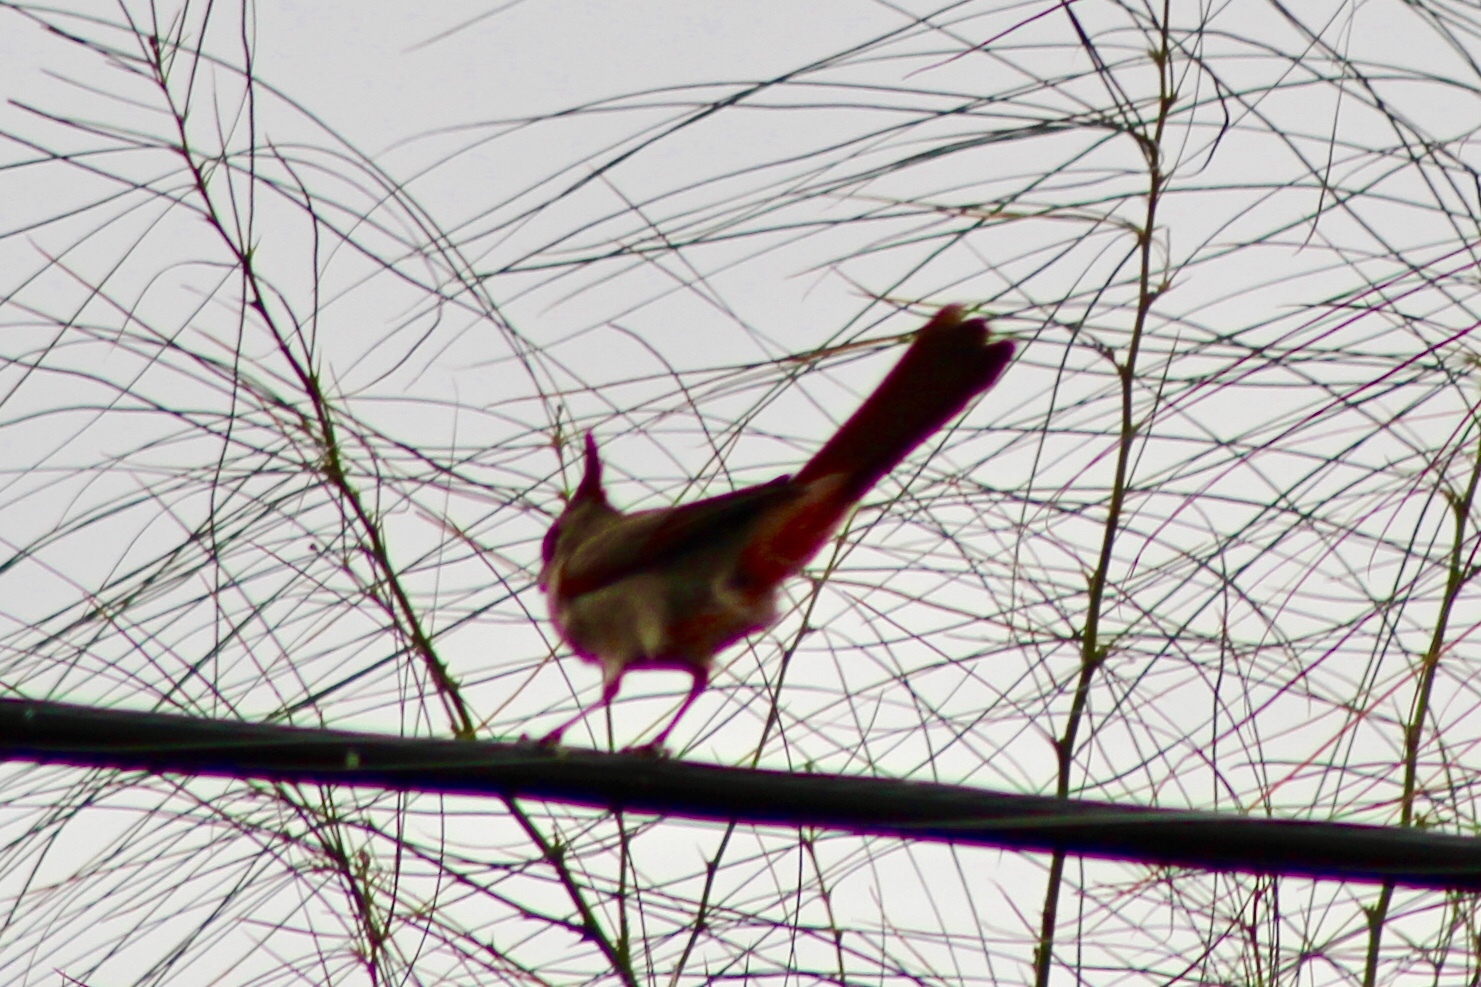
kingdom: Animalia
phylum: Chordata
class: Aves
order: Passeriformes
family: Cardinalidae
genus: Cardinalis
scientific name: Cardinalis sinuatus
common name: Pyrrhuloxia
